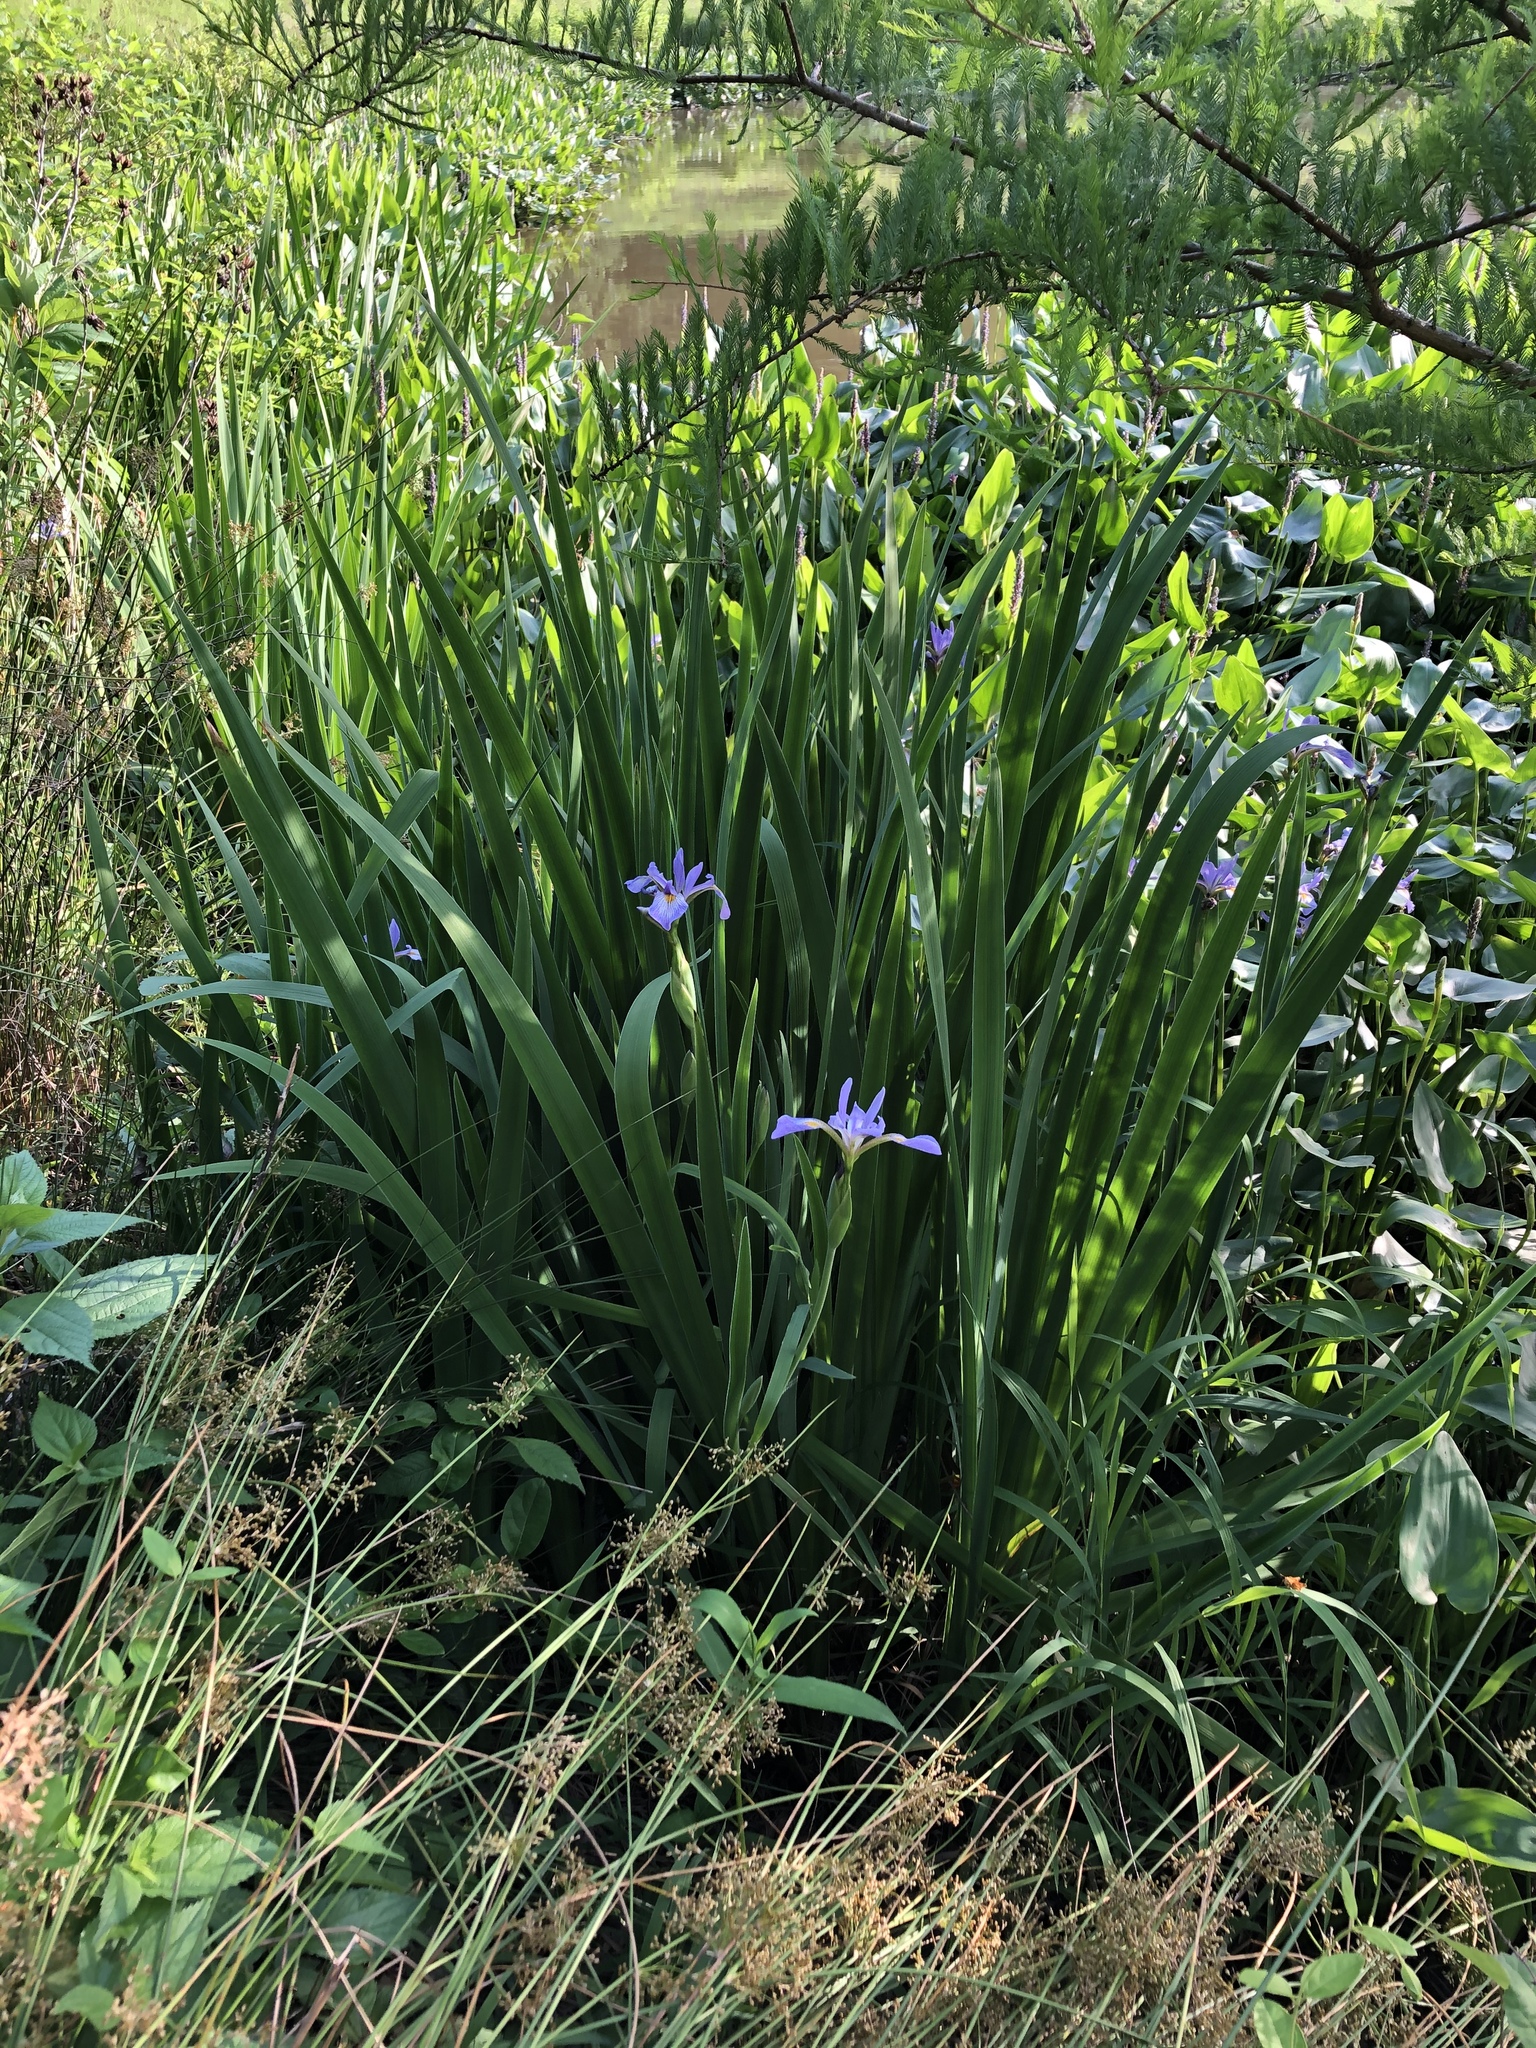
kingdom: Plantae
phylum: Tracheophyta
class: Liliopsida
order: Asparagales
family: Iridaceae
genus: Iris
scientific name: Iris virginica
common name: Southern blue flag
